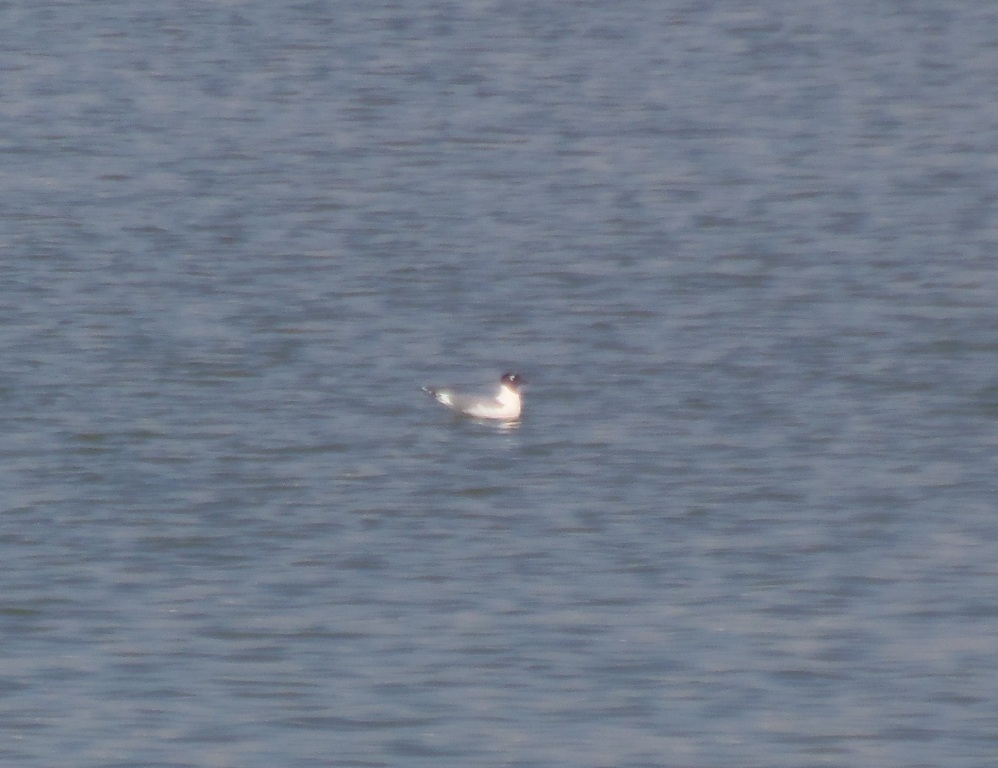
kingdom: Animalia
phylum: Chordata
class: Aves
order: Charadriiformes
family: Laridae
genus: Leucophaeus
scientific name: Leucophaeus pipixcan
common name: Franklin's gull
